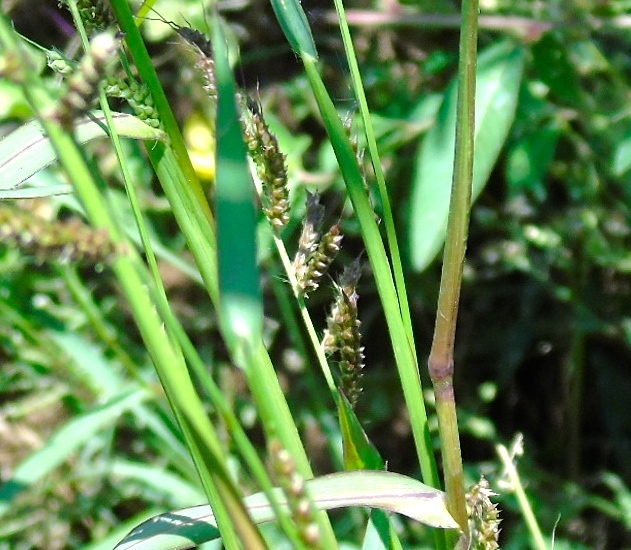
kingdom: Plantae
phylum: Tracheophyta
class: Liliopsida
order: Poales
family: Poaceae
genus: Echinochloa
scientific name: Echinochloa crus-galli
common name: Cockspur
